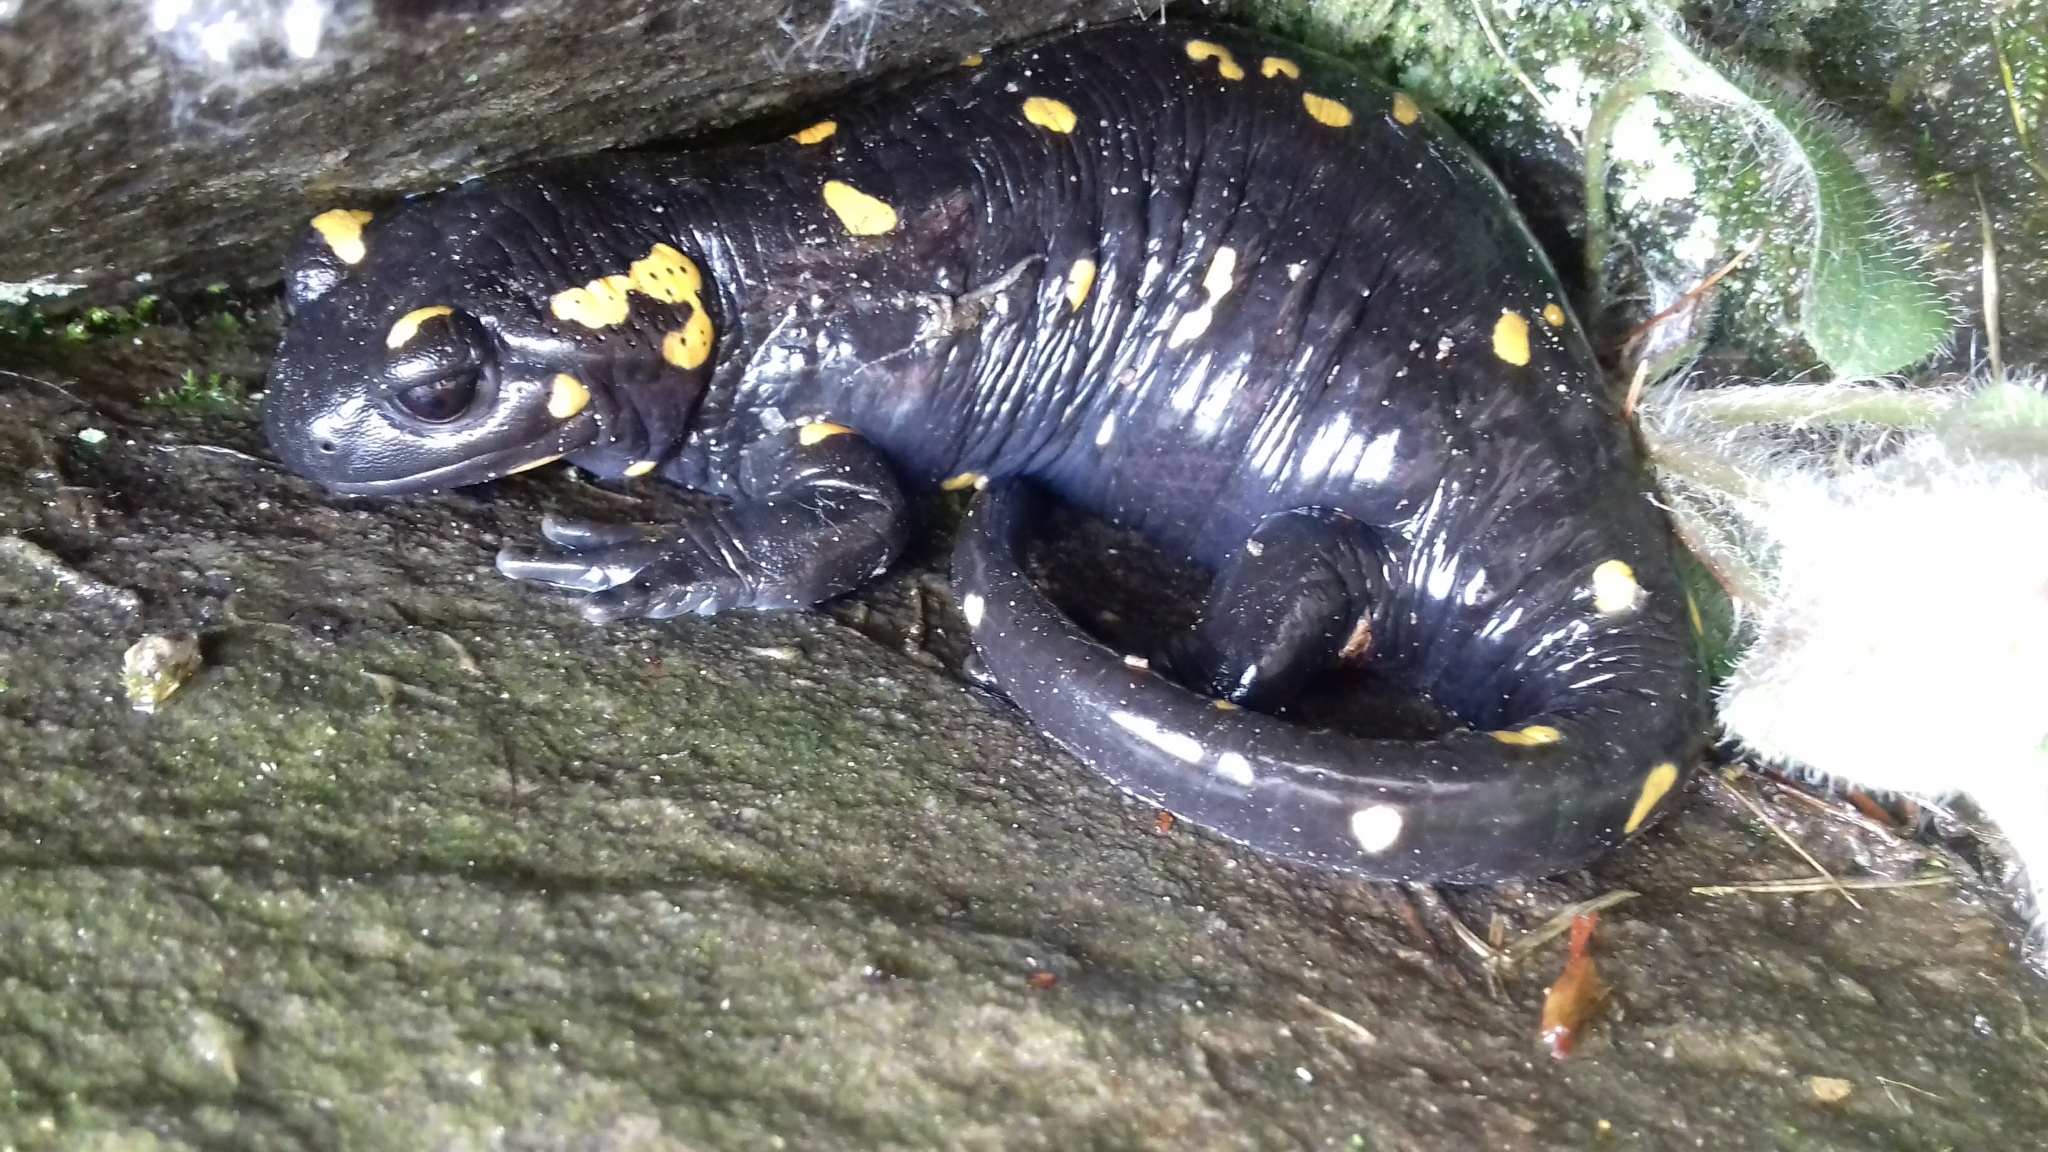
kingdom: Animalia
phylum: Chordata
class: Amphibia
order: Caudata
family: Salamandridae
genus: Salamandra
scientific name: Salamandra salamandra
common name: Fire salamander
